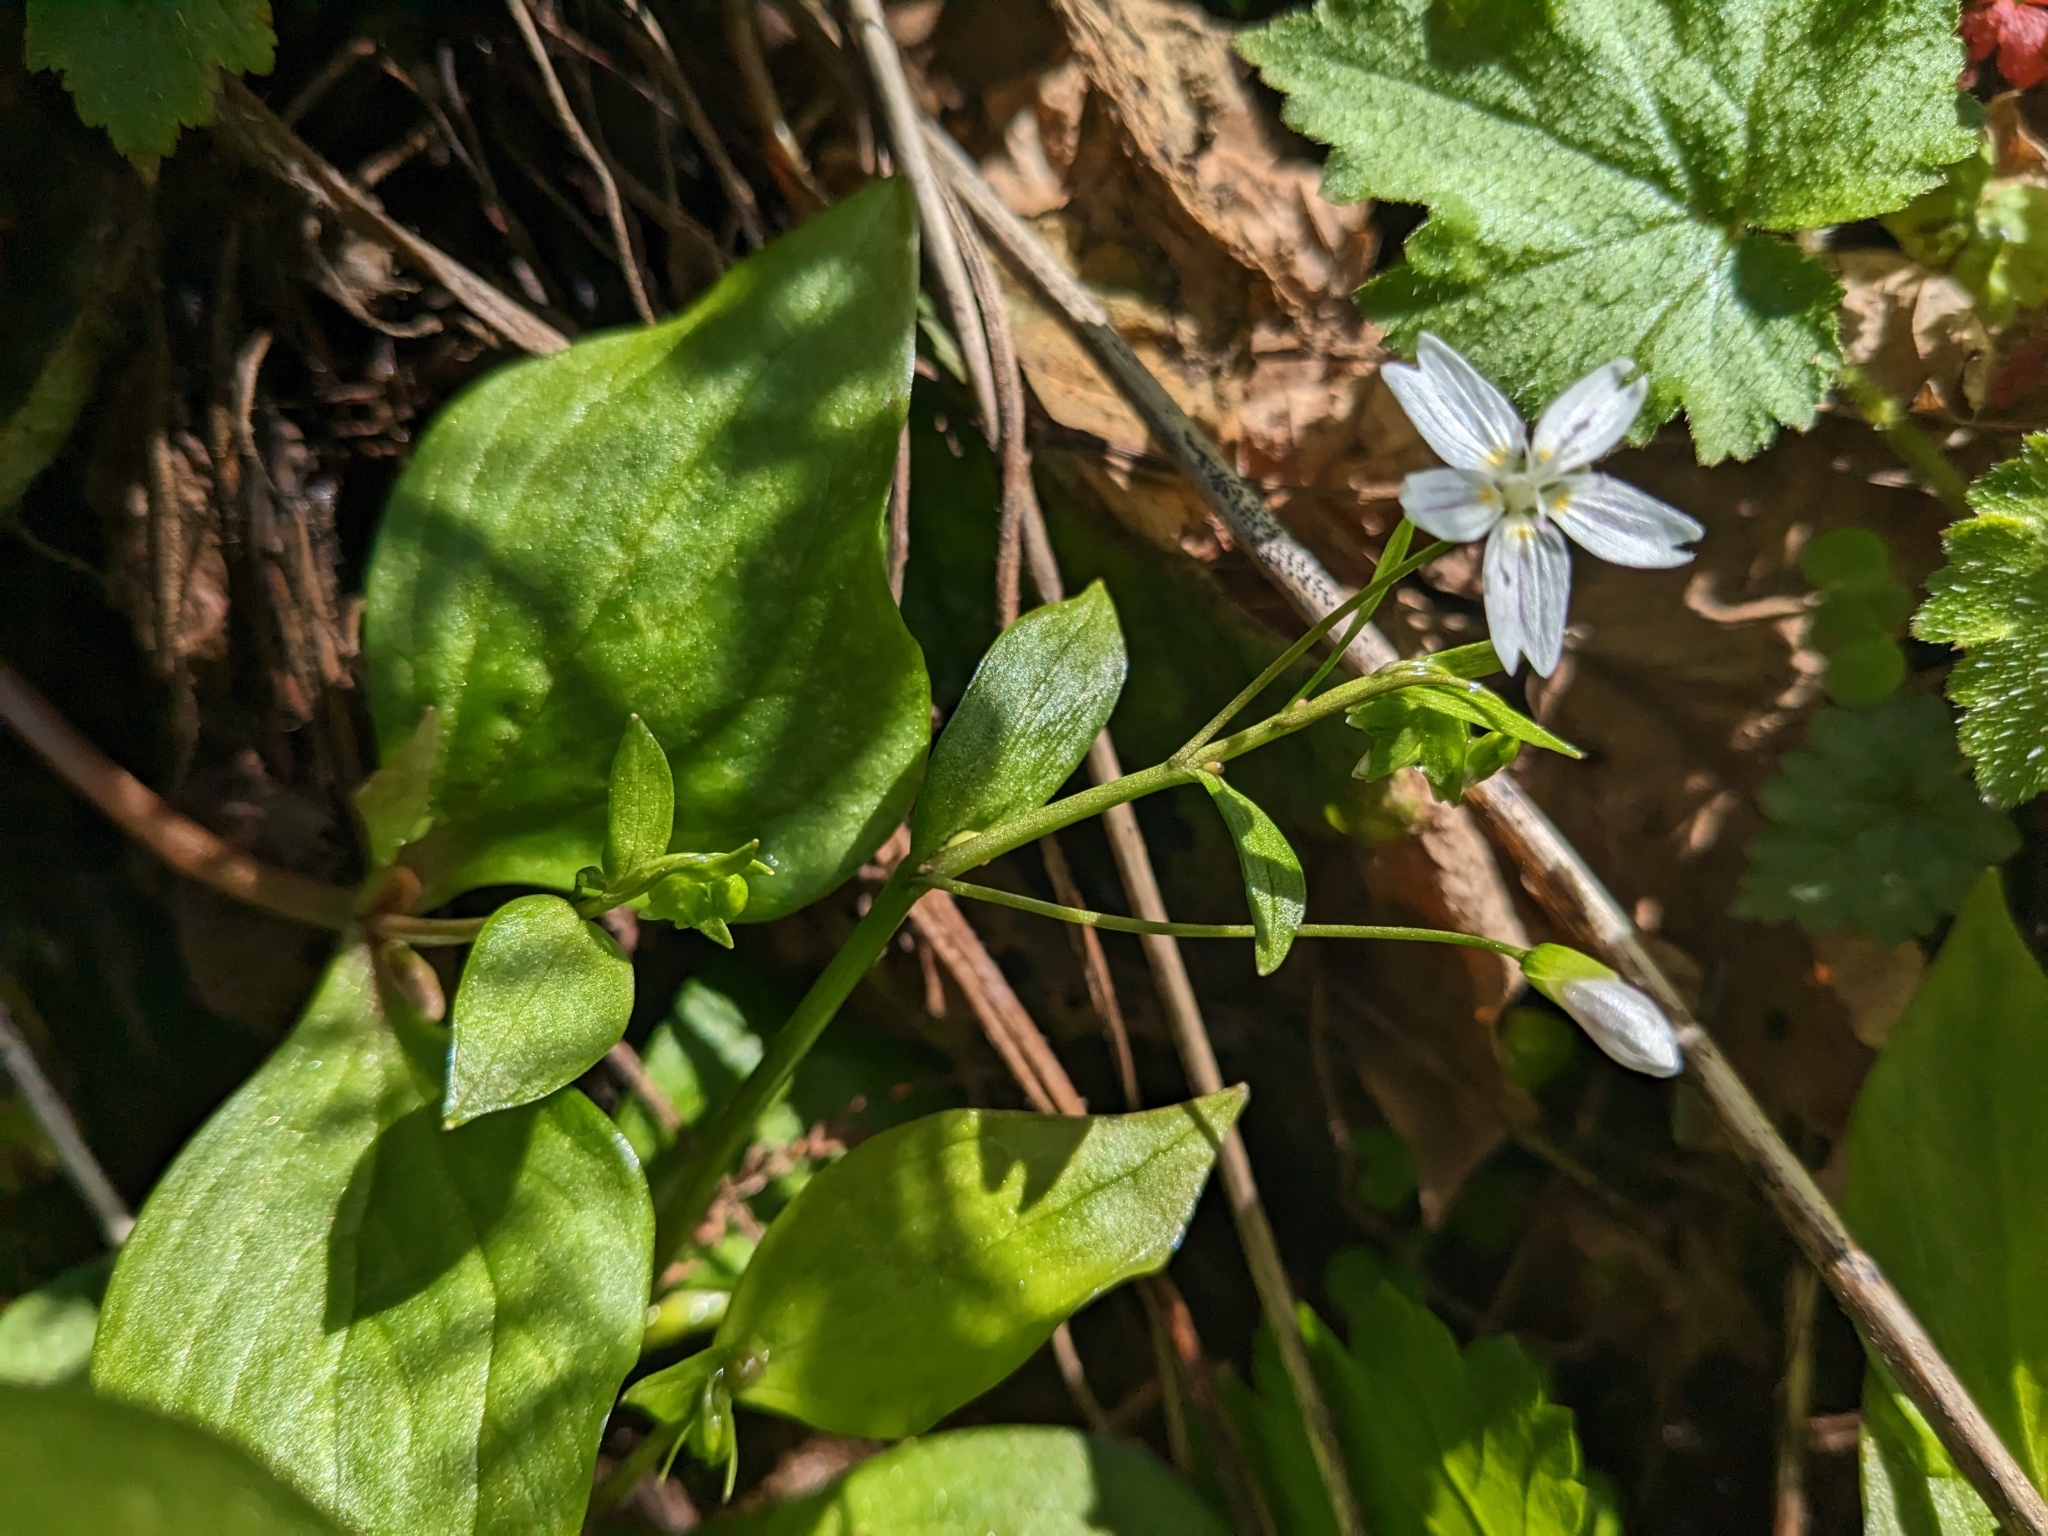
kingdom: Plantae
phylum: Tracheophyta
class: Magnoliopsida
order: Caryophyllales
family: Montiaceae
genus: Claytonia
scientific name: Claytonia sibirica
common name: Pink purslane
